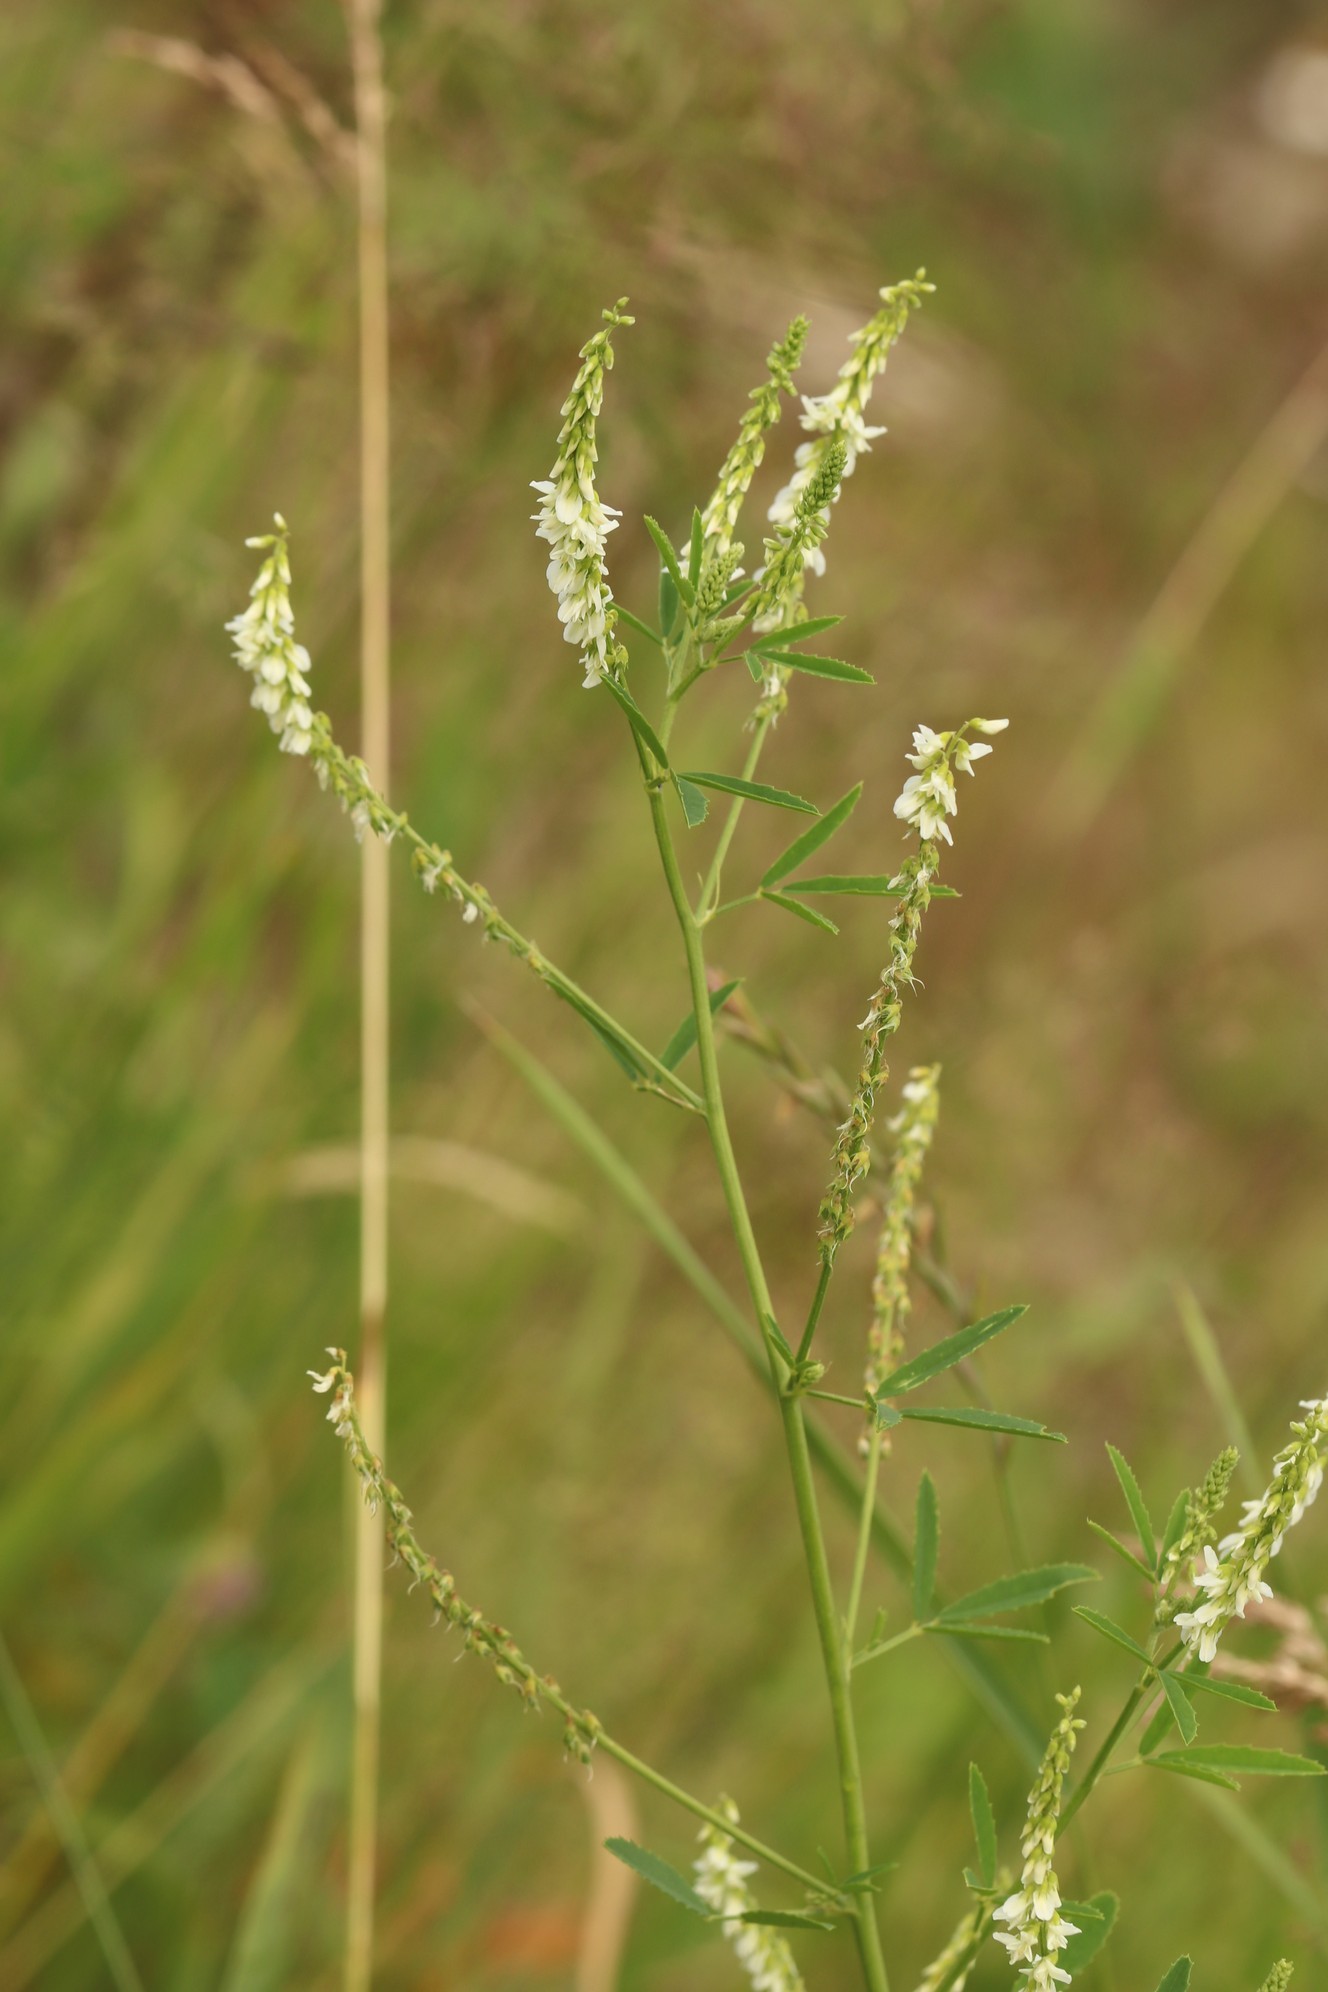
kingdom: Plantae
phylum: Tracheophyta
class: Magnoliopsida
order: Fabales
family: Fabaceae
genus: Melilotus
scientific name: Melilotus albus
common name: White melilot
